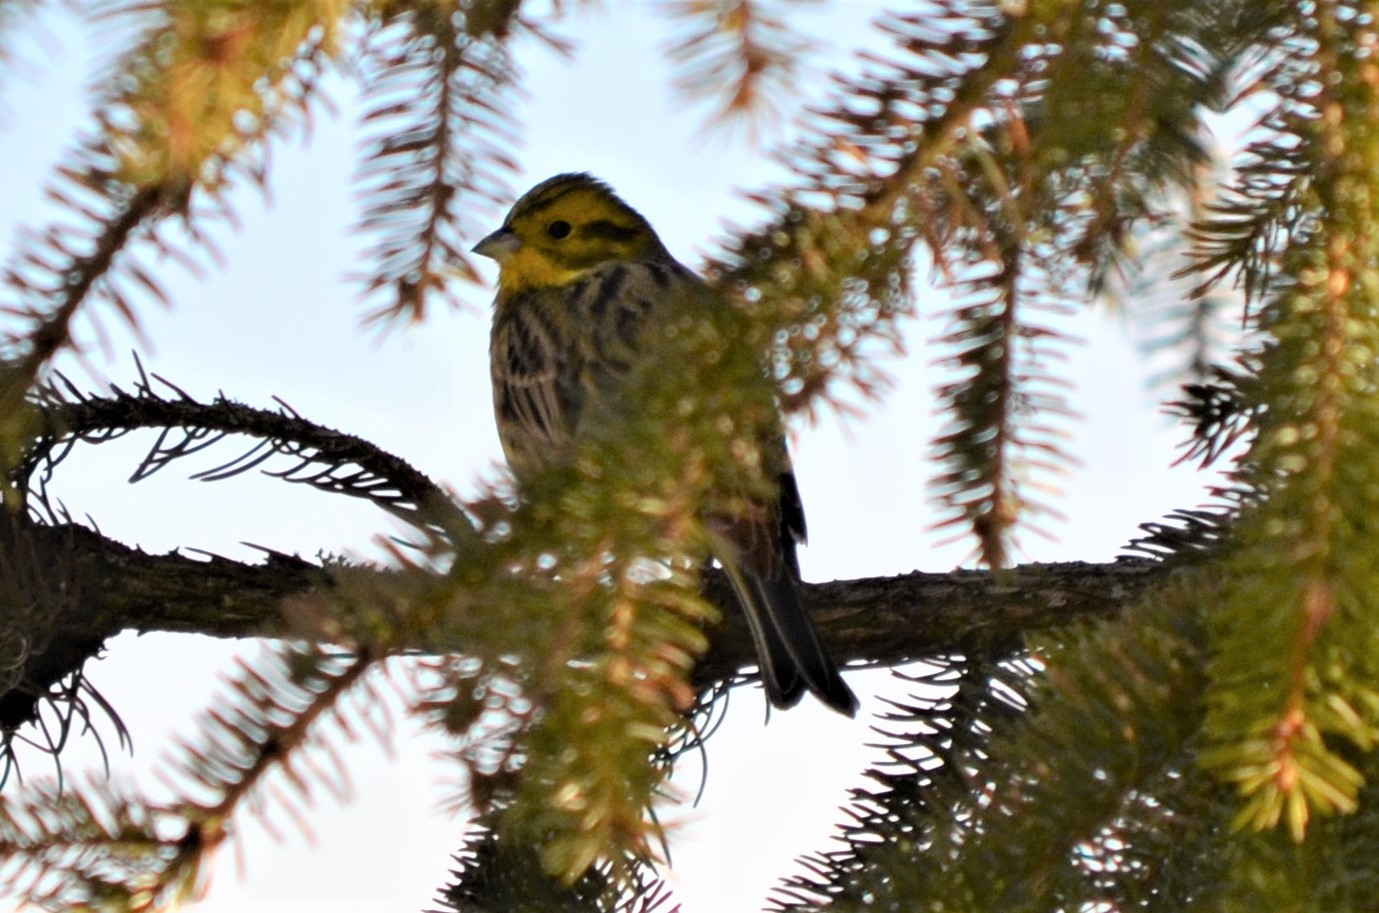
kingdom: Animalia
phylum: Chordata
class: Aves
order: Passeriformes
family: Emberizidae
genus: Emberiza
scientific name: Emberiza citrinella
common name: Yellowhammer
